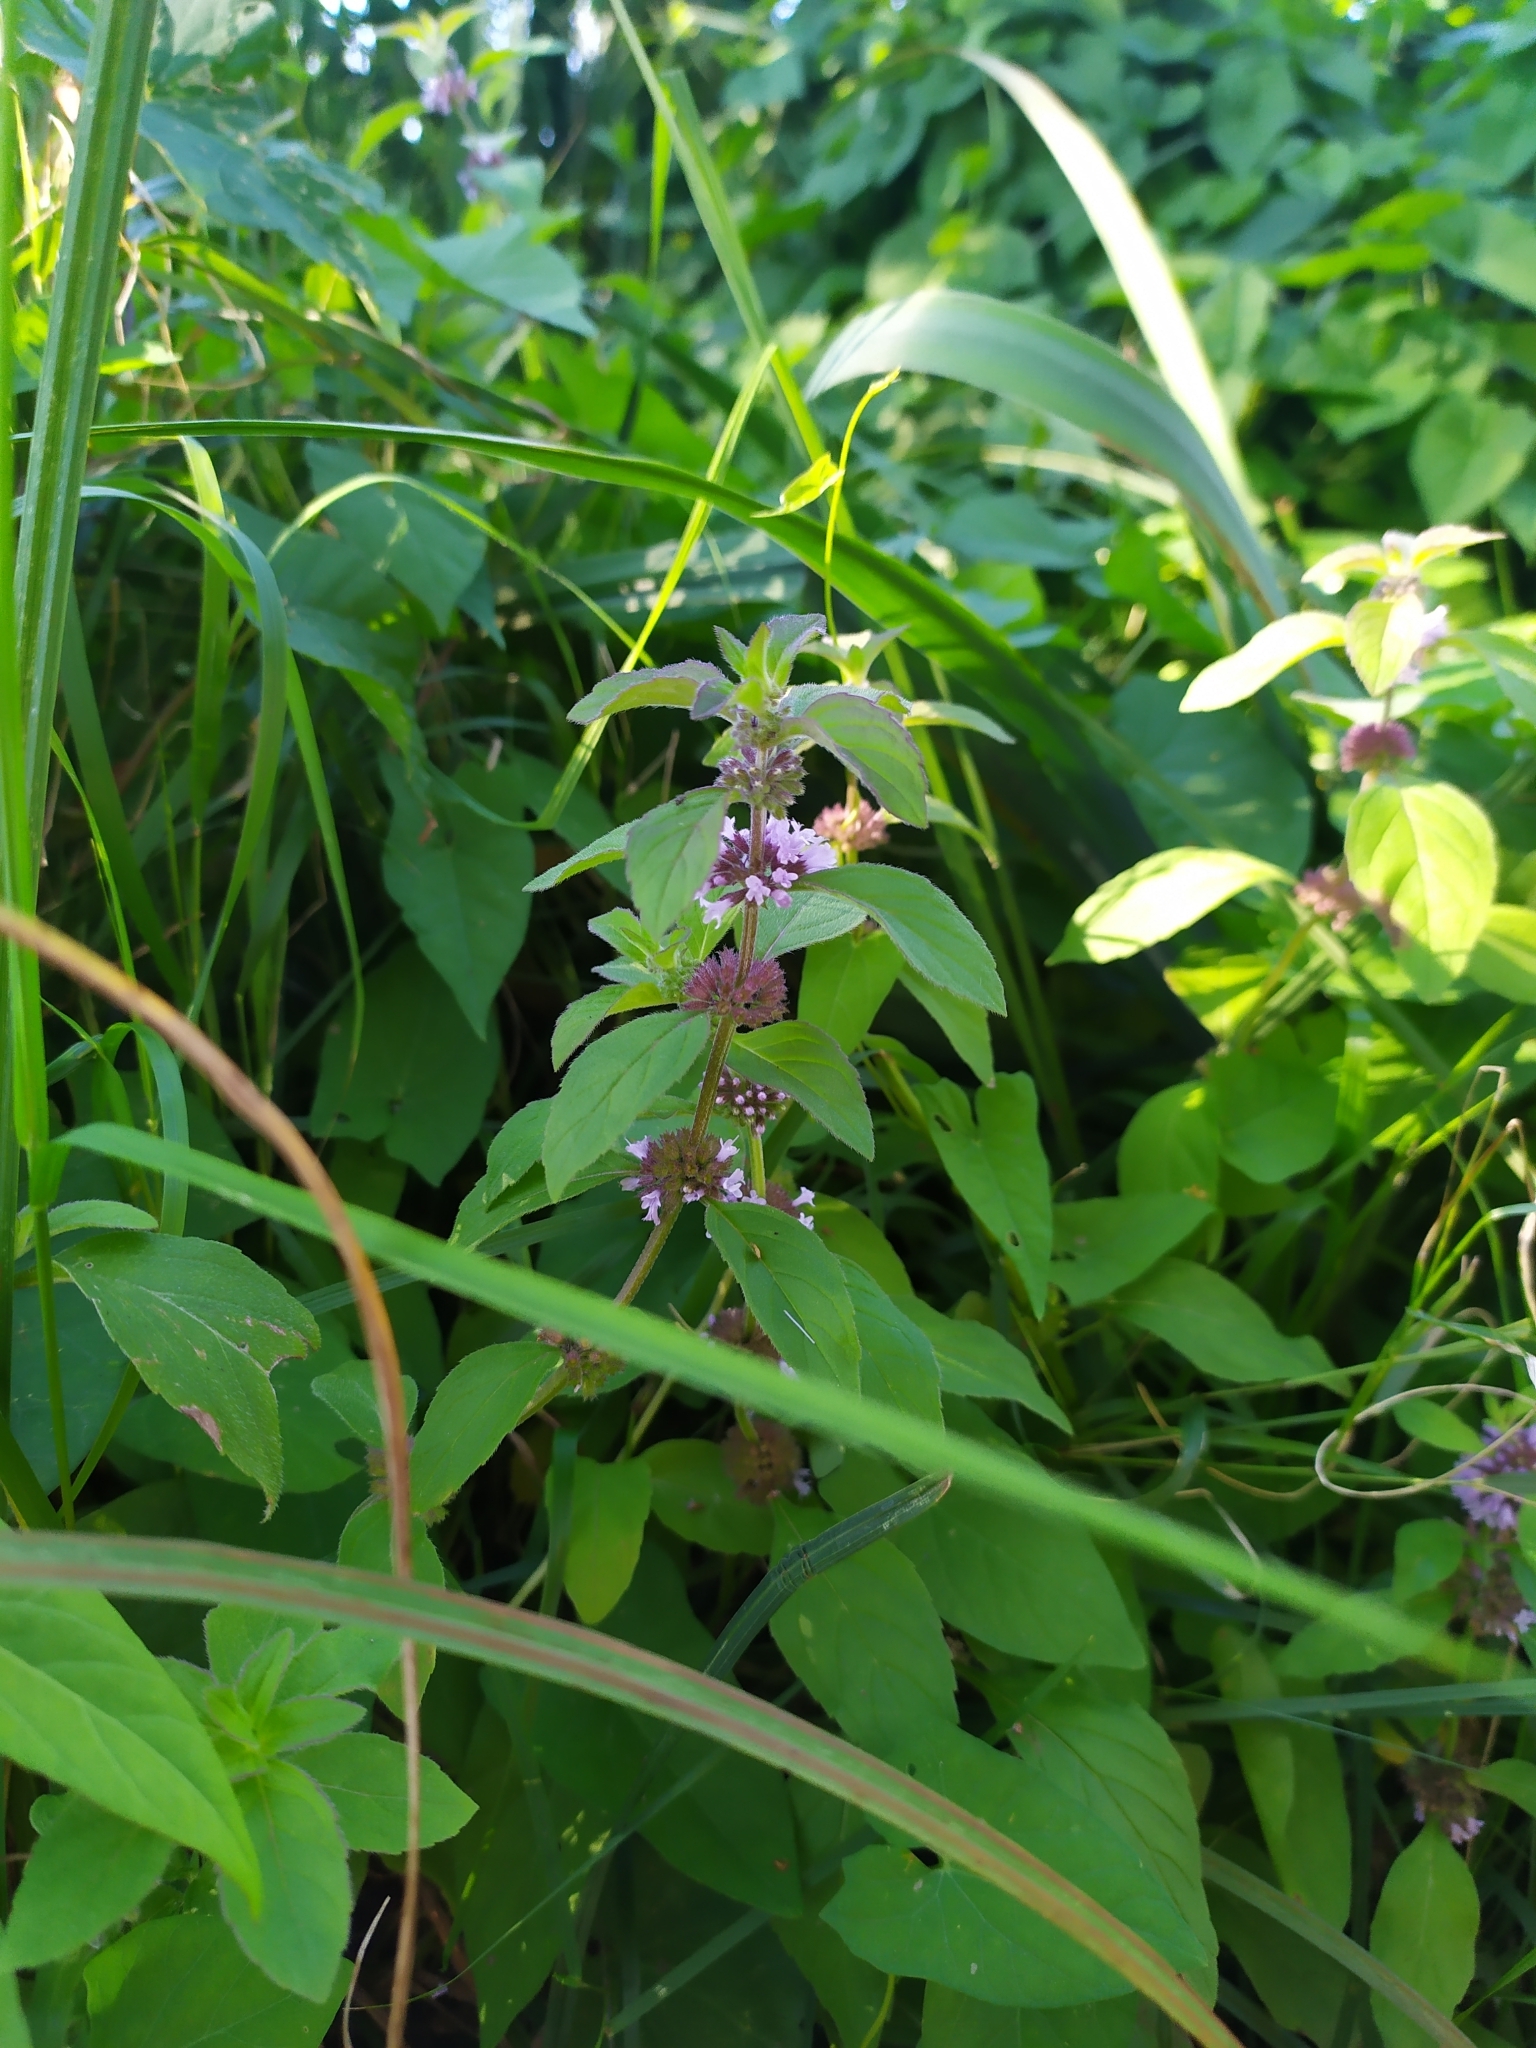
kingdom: Plantae
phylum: Tracheophyta
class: Magnoliopsida
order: Lamiales
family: Lamiaceae
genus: Mentha
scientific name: Mentha arvensis
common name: Corn mint
